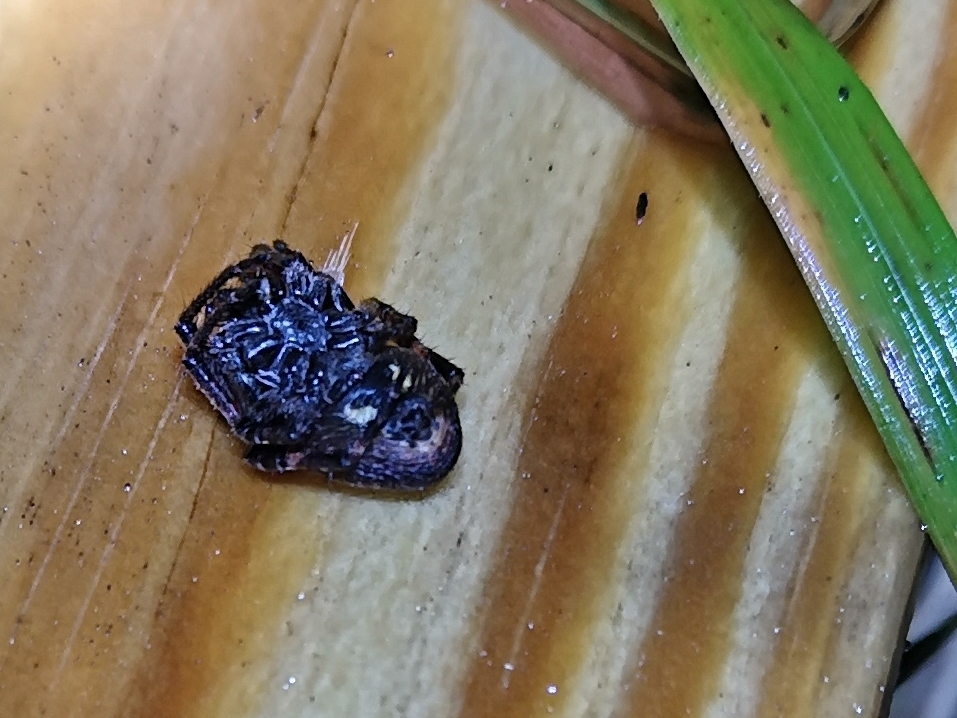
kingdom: Animalia
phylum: Arthropoda
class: Arachnida
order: Araneae
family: Araneidae
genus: Nuctenea
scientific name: Nuctenea umbratica
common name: Toad spider
